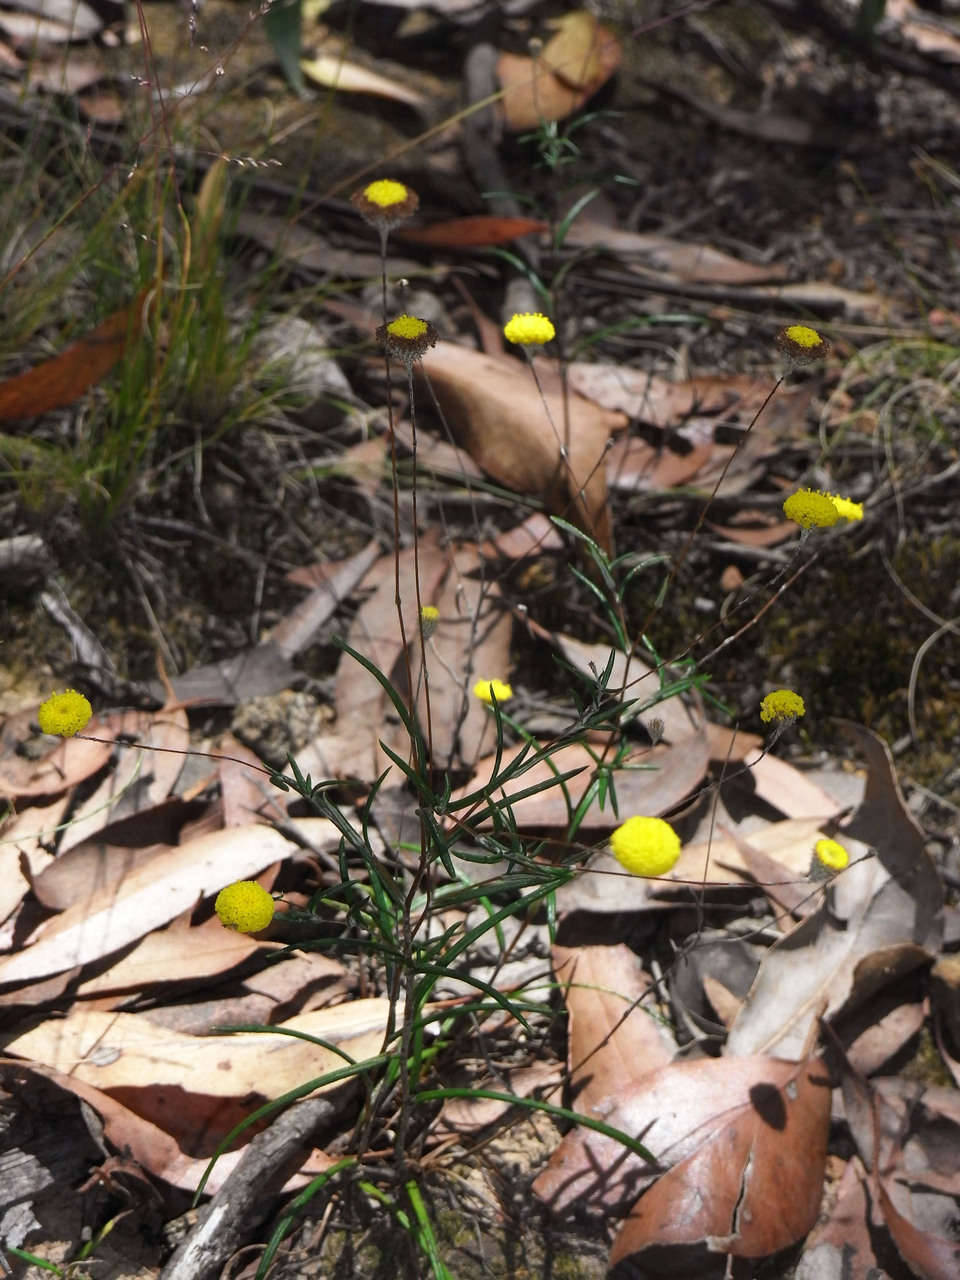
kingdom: Plantae
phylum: Tracheophyta
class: Magnoliopsida
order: Asterales
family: Asteraceae
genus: Leptorhynchos
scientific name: Leptorhynchos tenuifolius
